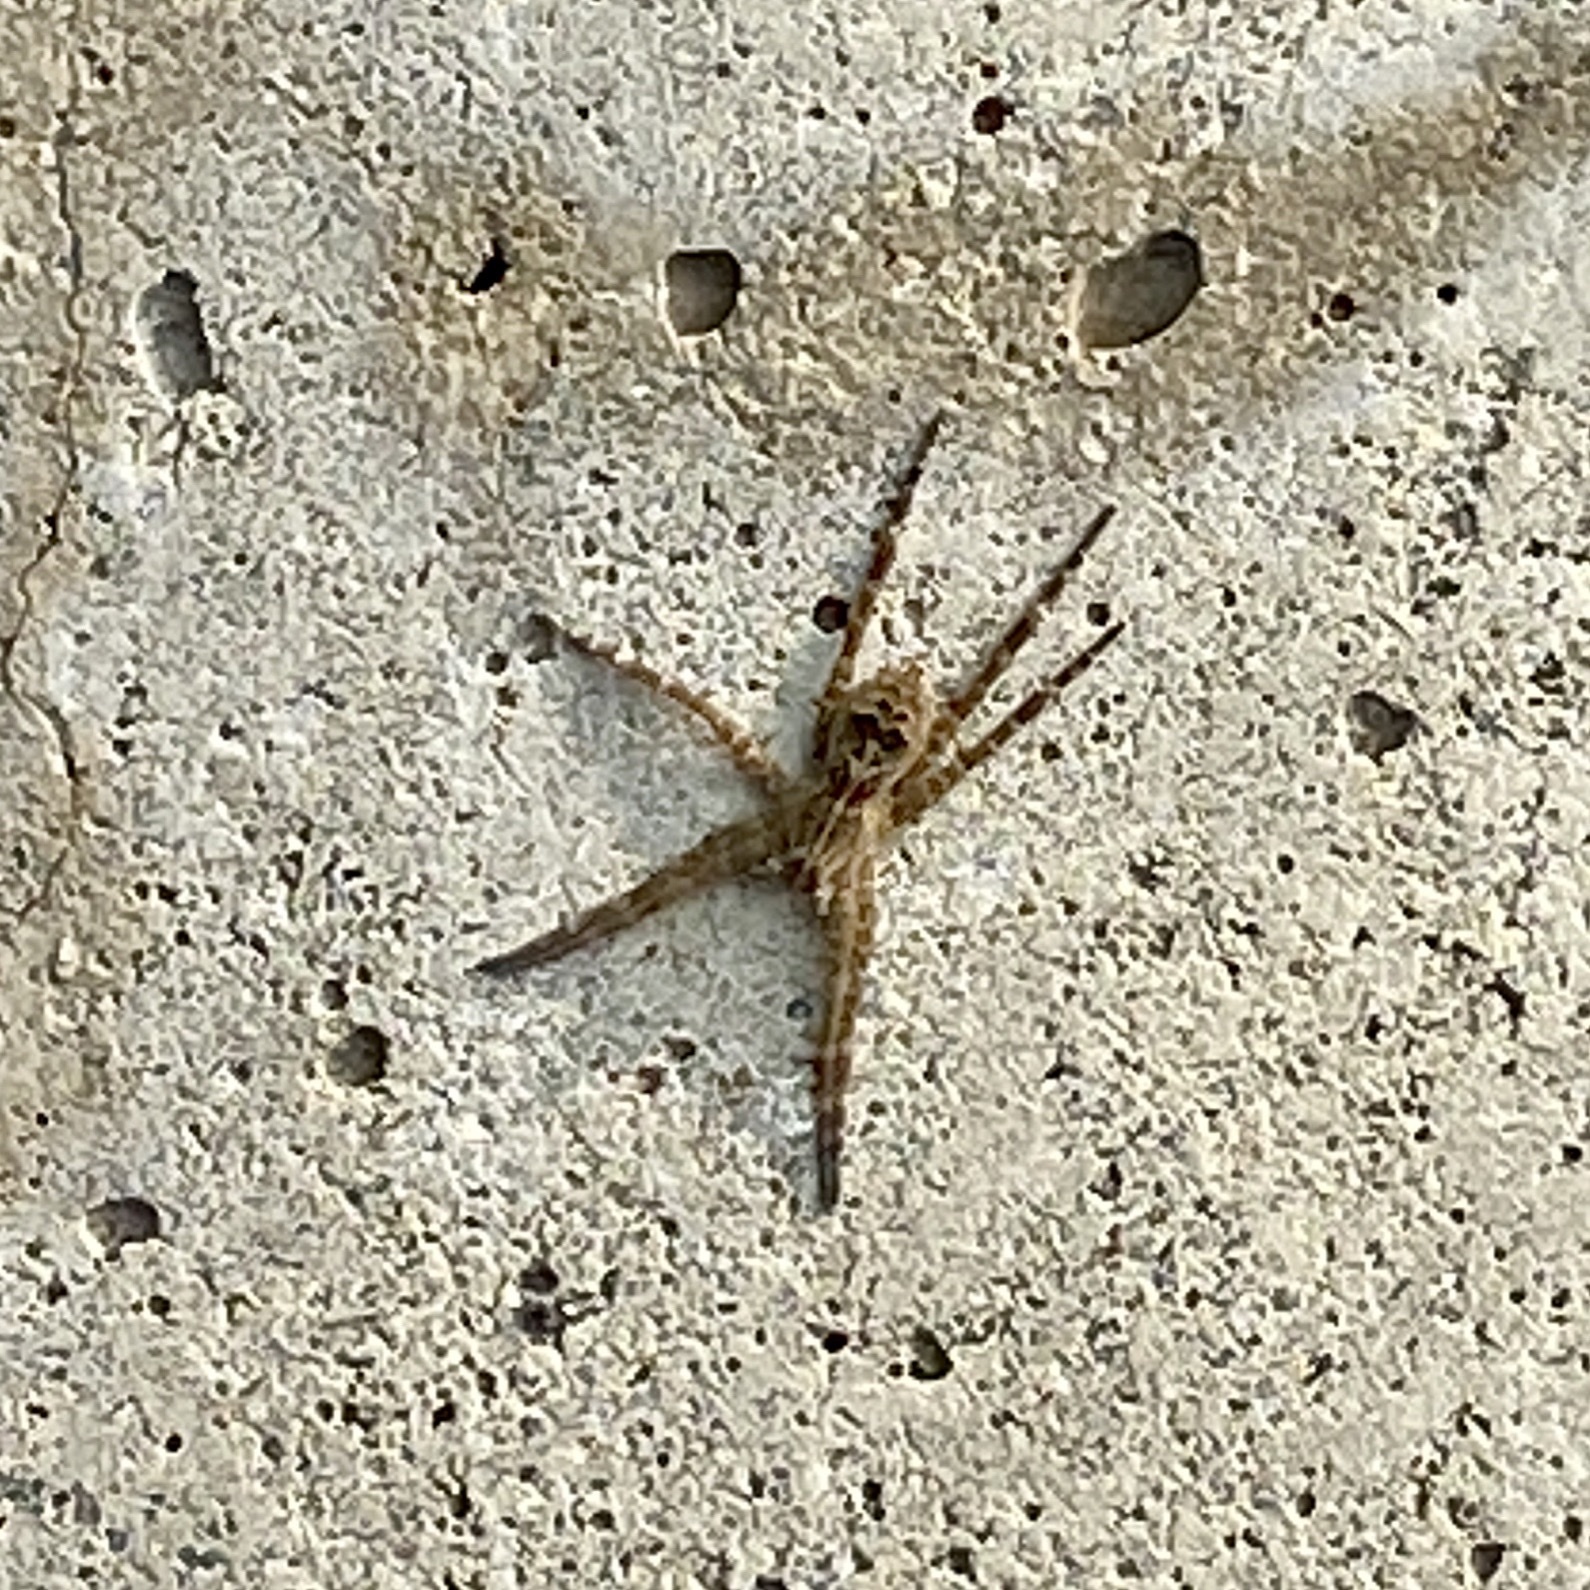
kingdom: Animalia
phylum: Arthropoda
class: Arachnida
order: Araneae
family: Pisauridae
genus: Dolomedes
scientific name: Dolomedes scriptus
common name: Striped fishing spider
